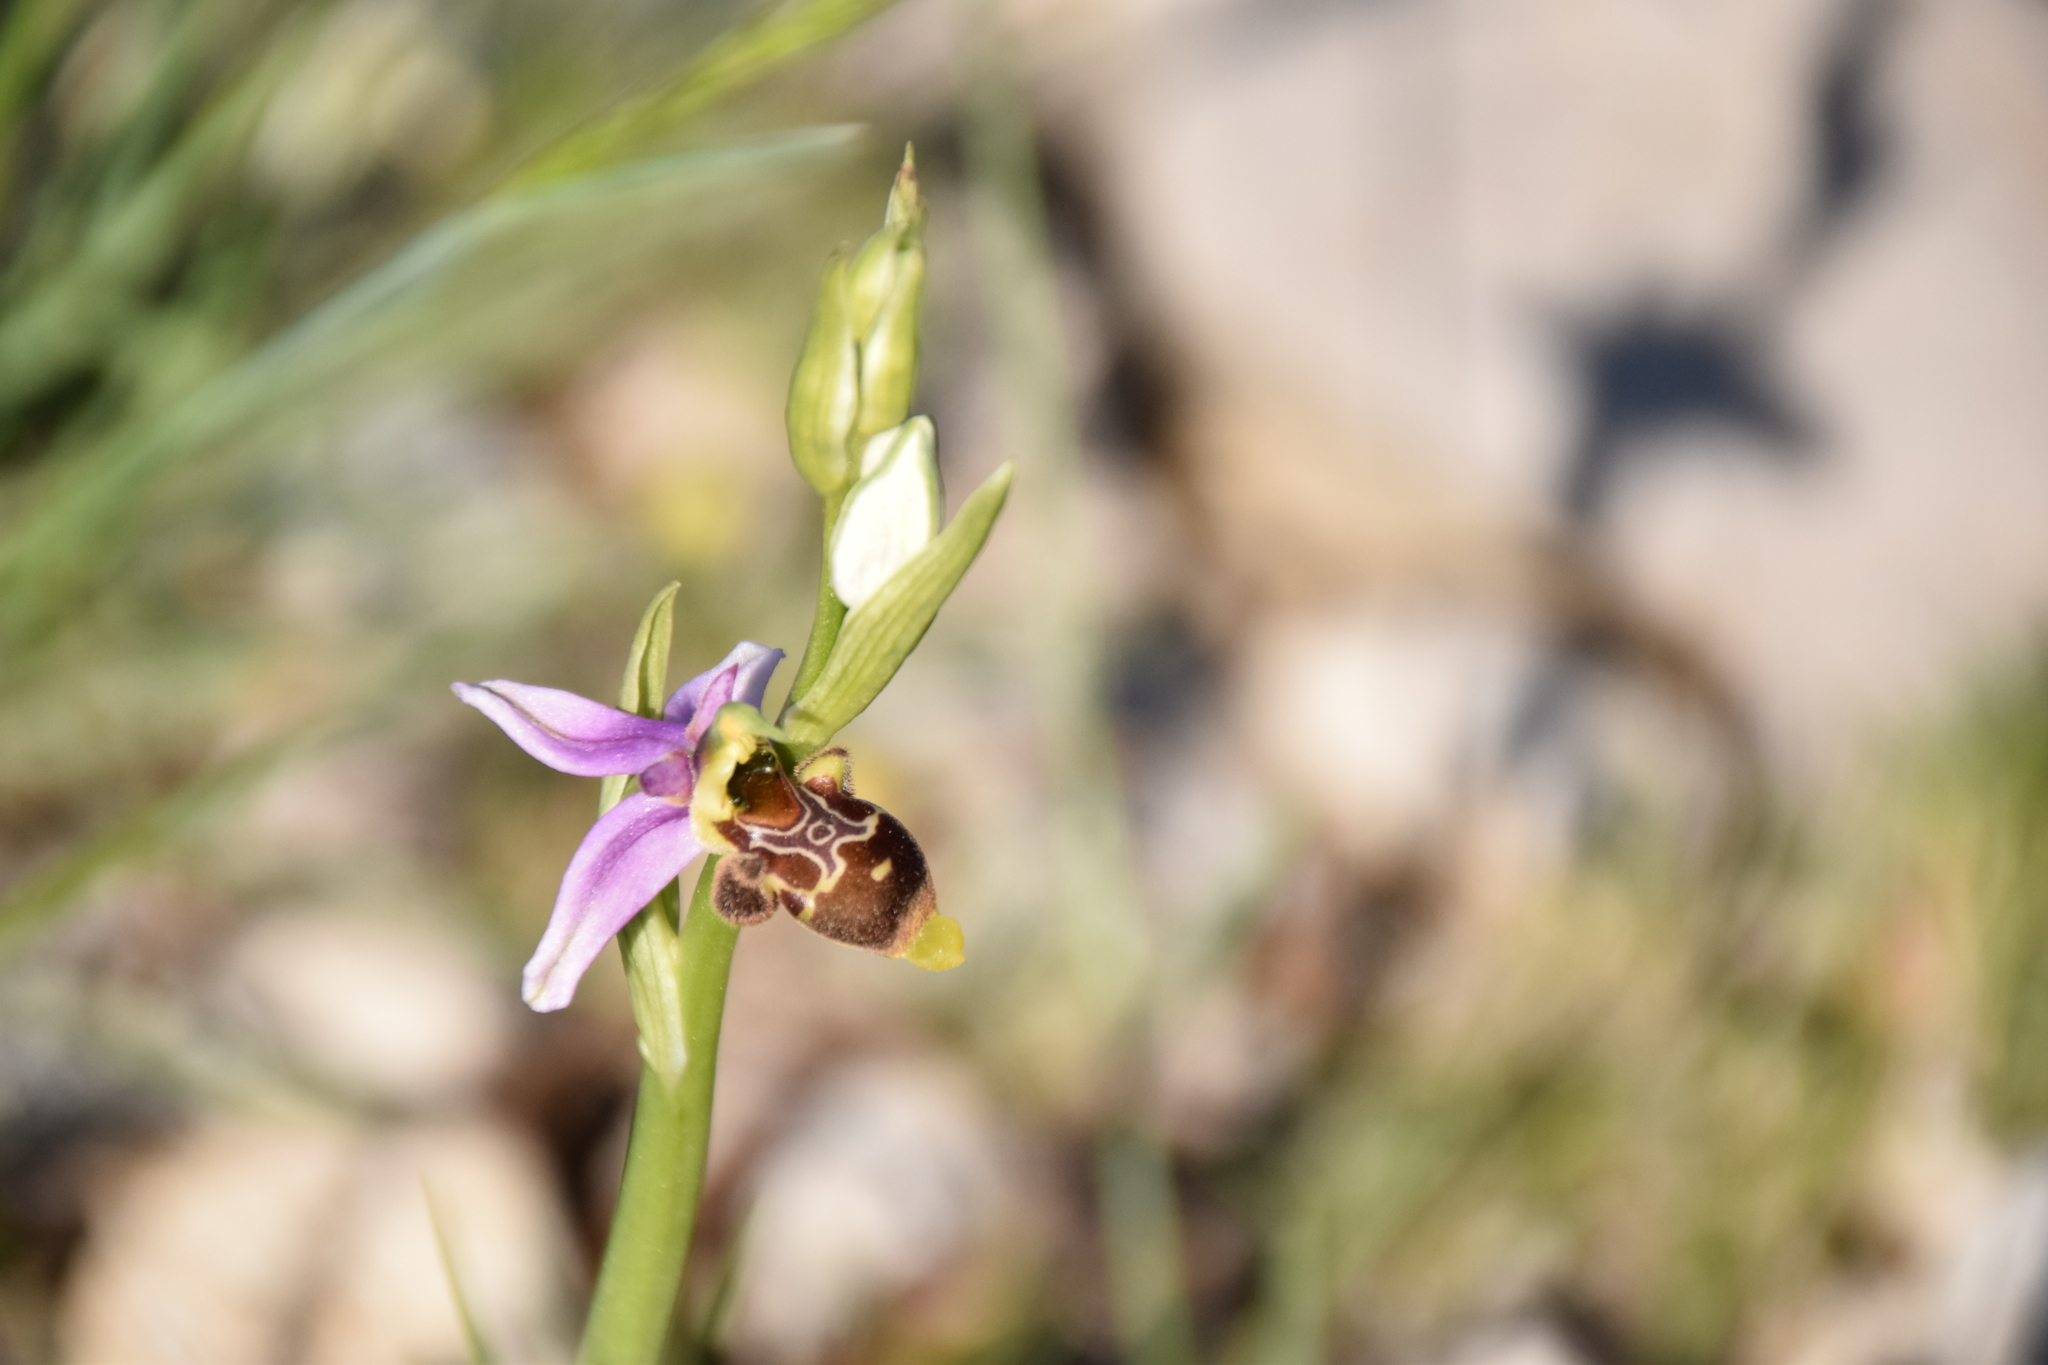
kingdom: Plantae
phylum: Tracheophyta
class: Liliopsida
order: Asparagales
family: Orchidaceae
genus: Ophrys
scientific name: Ophrys scolopax
